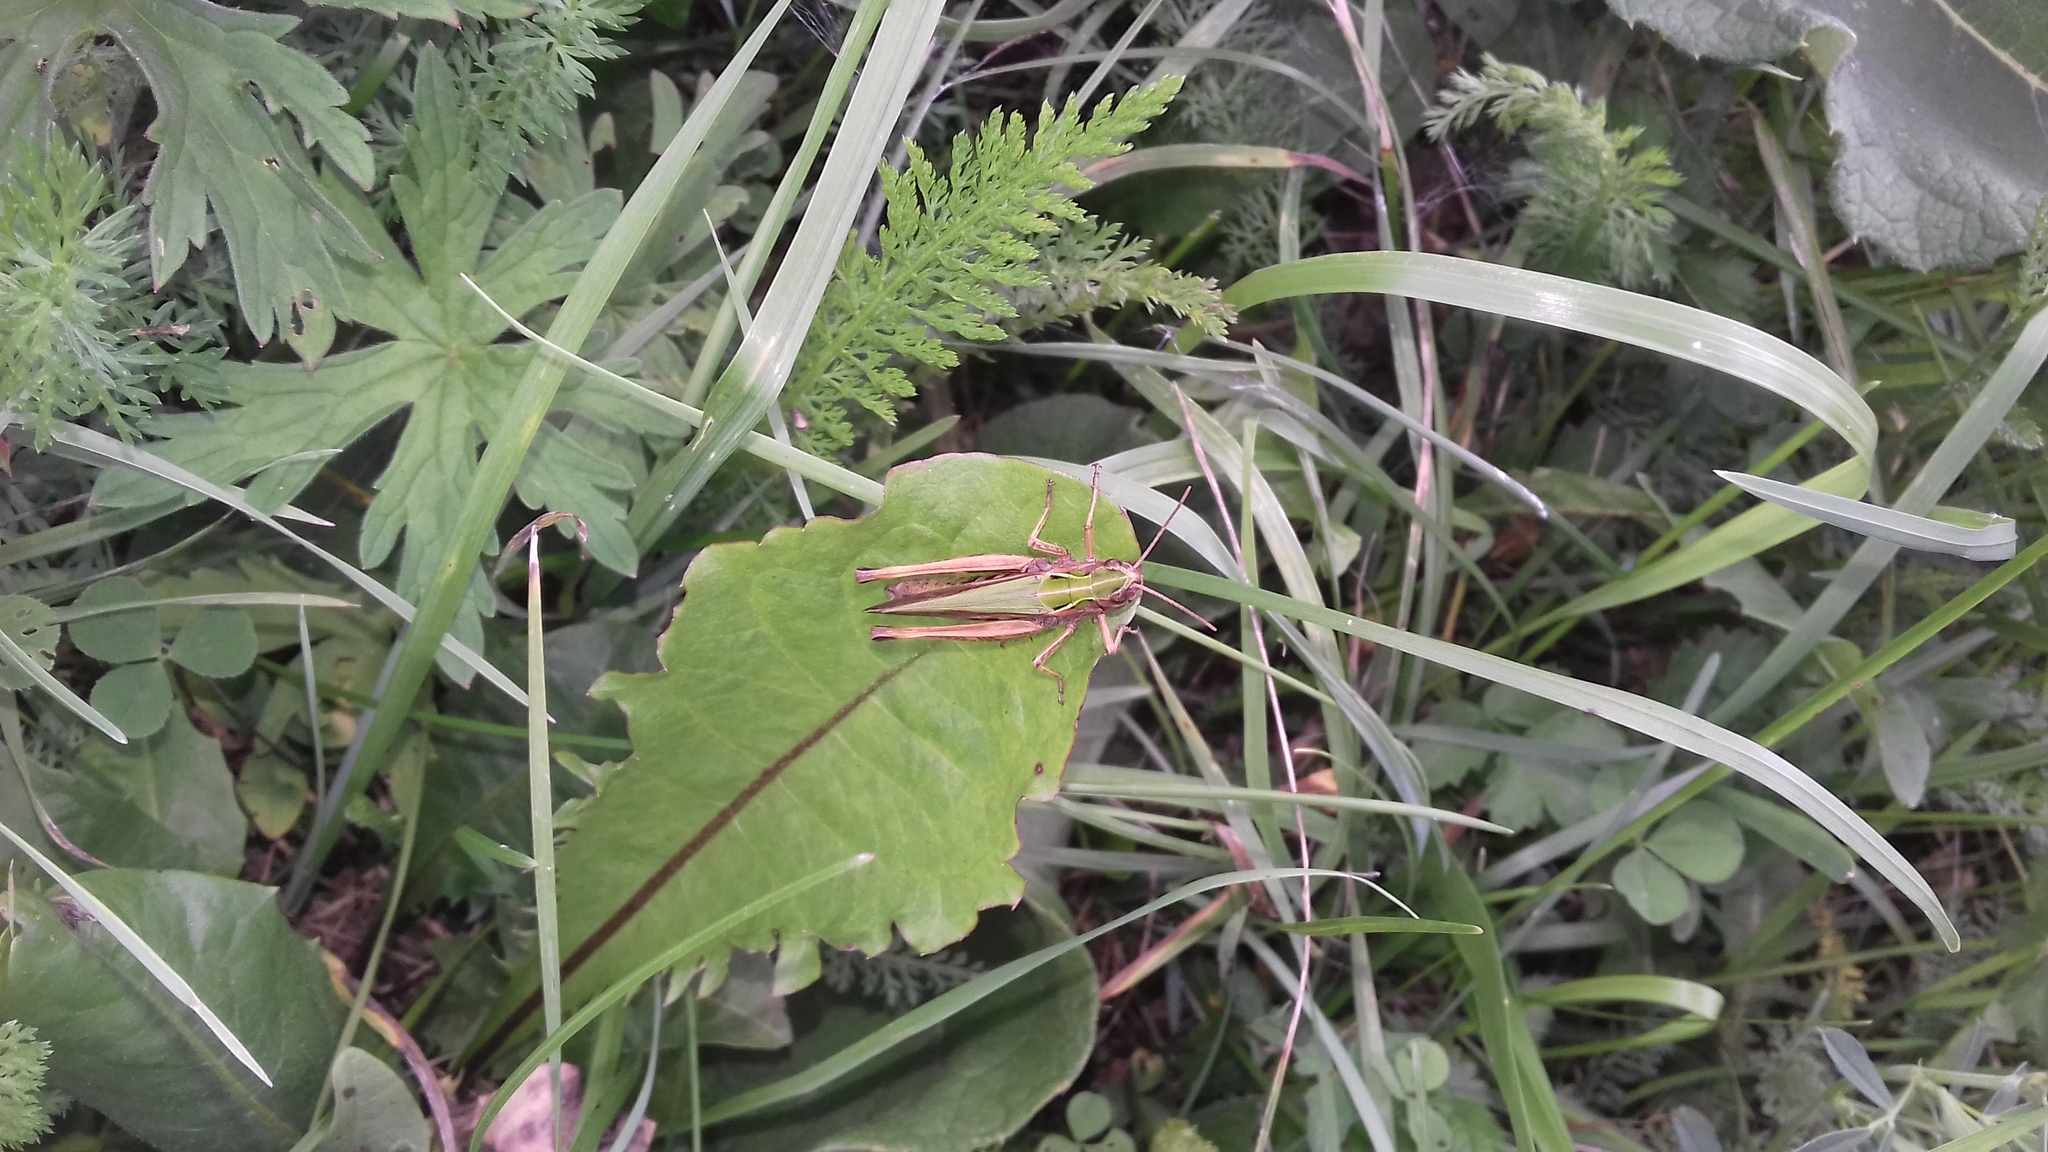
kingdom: Animalia
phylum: Arthropoda
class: Insecta
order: Orthoptera
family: Acrididae
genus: Omocestus
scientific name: Omocestus viridulus
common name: Common green grasshopper
